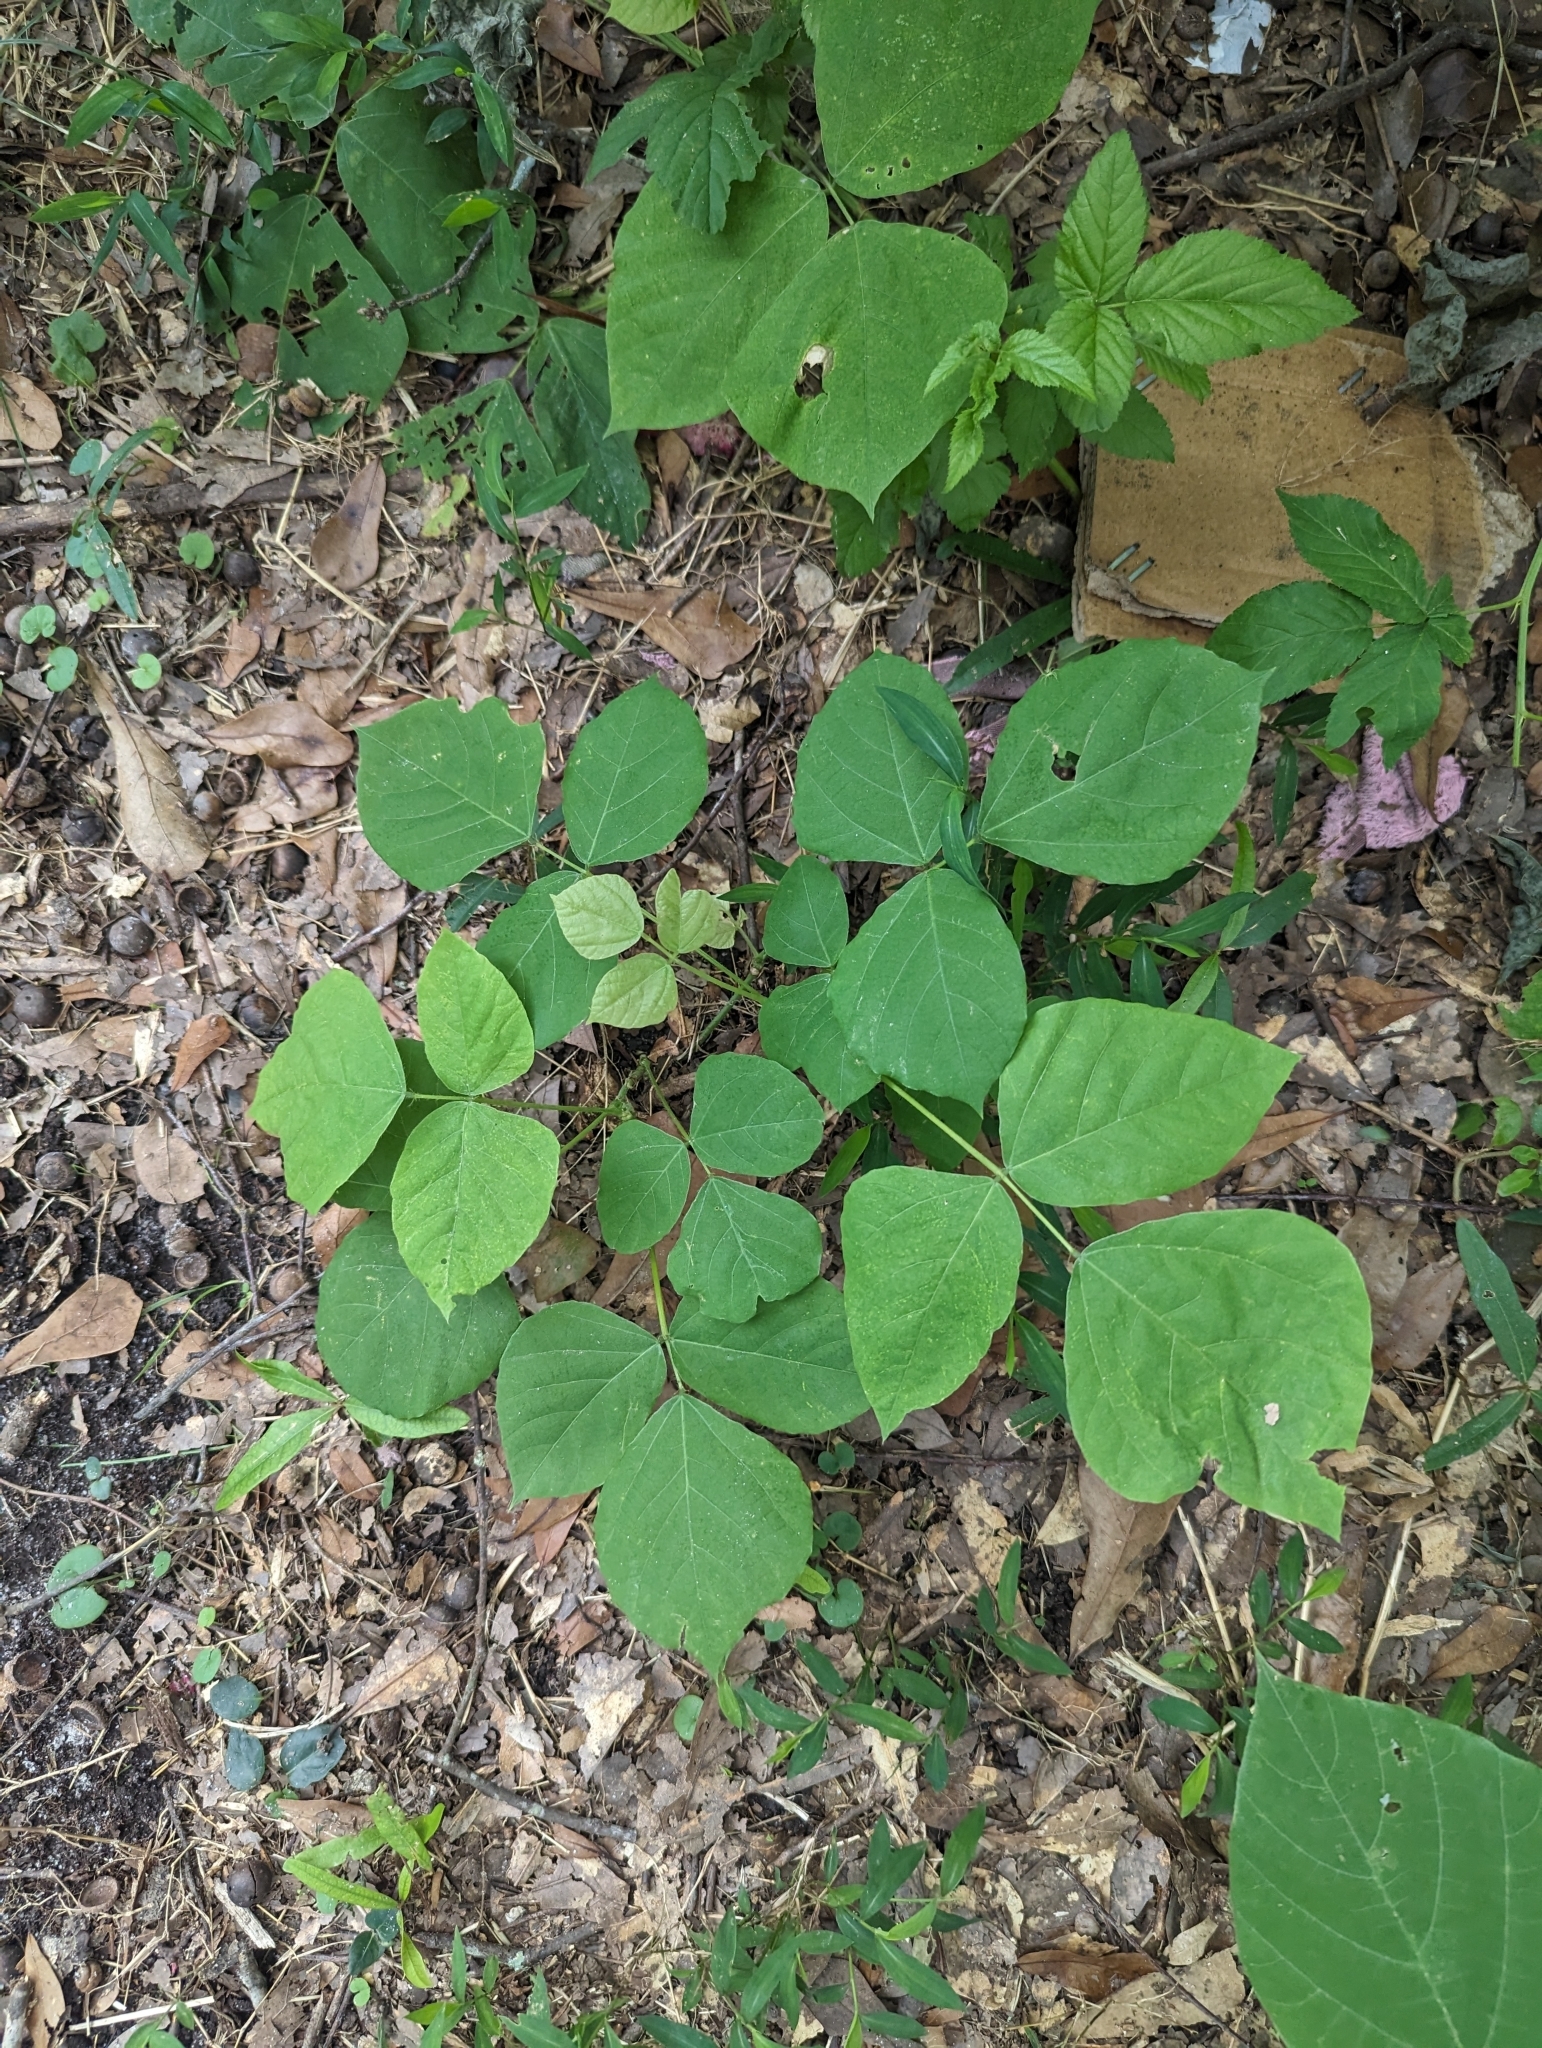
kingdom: Plantae
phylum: Tracheophyta
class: Magnoliopsida
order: Fabales
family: Fabaceae
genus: Pueraria
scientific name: Pueraria montana
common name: Kudzu
